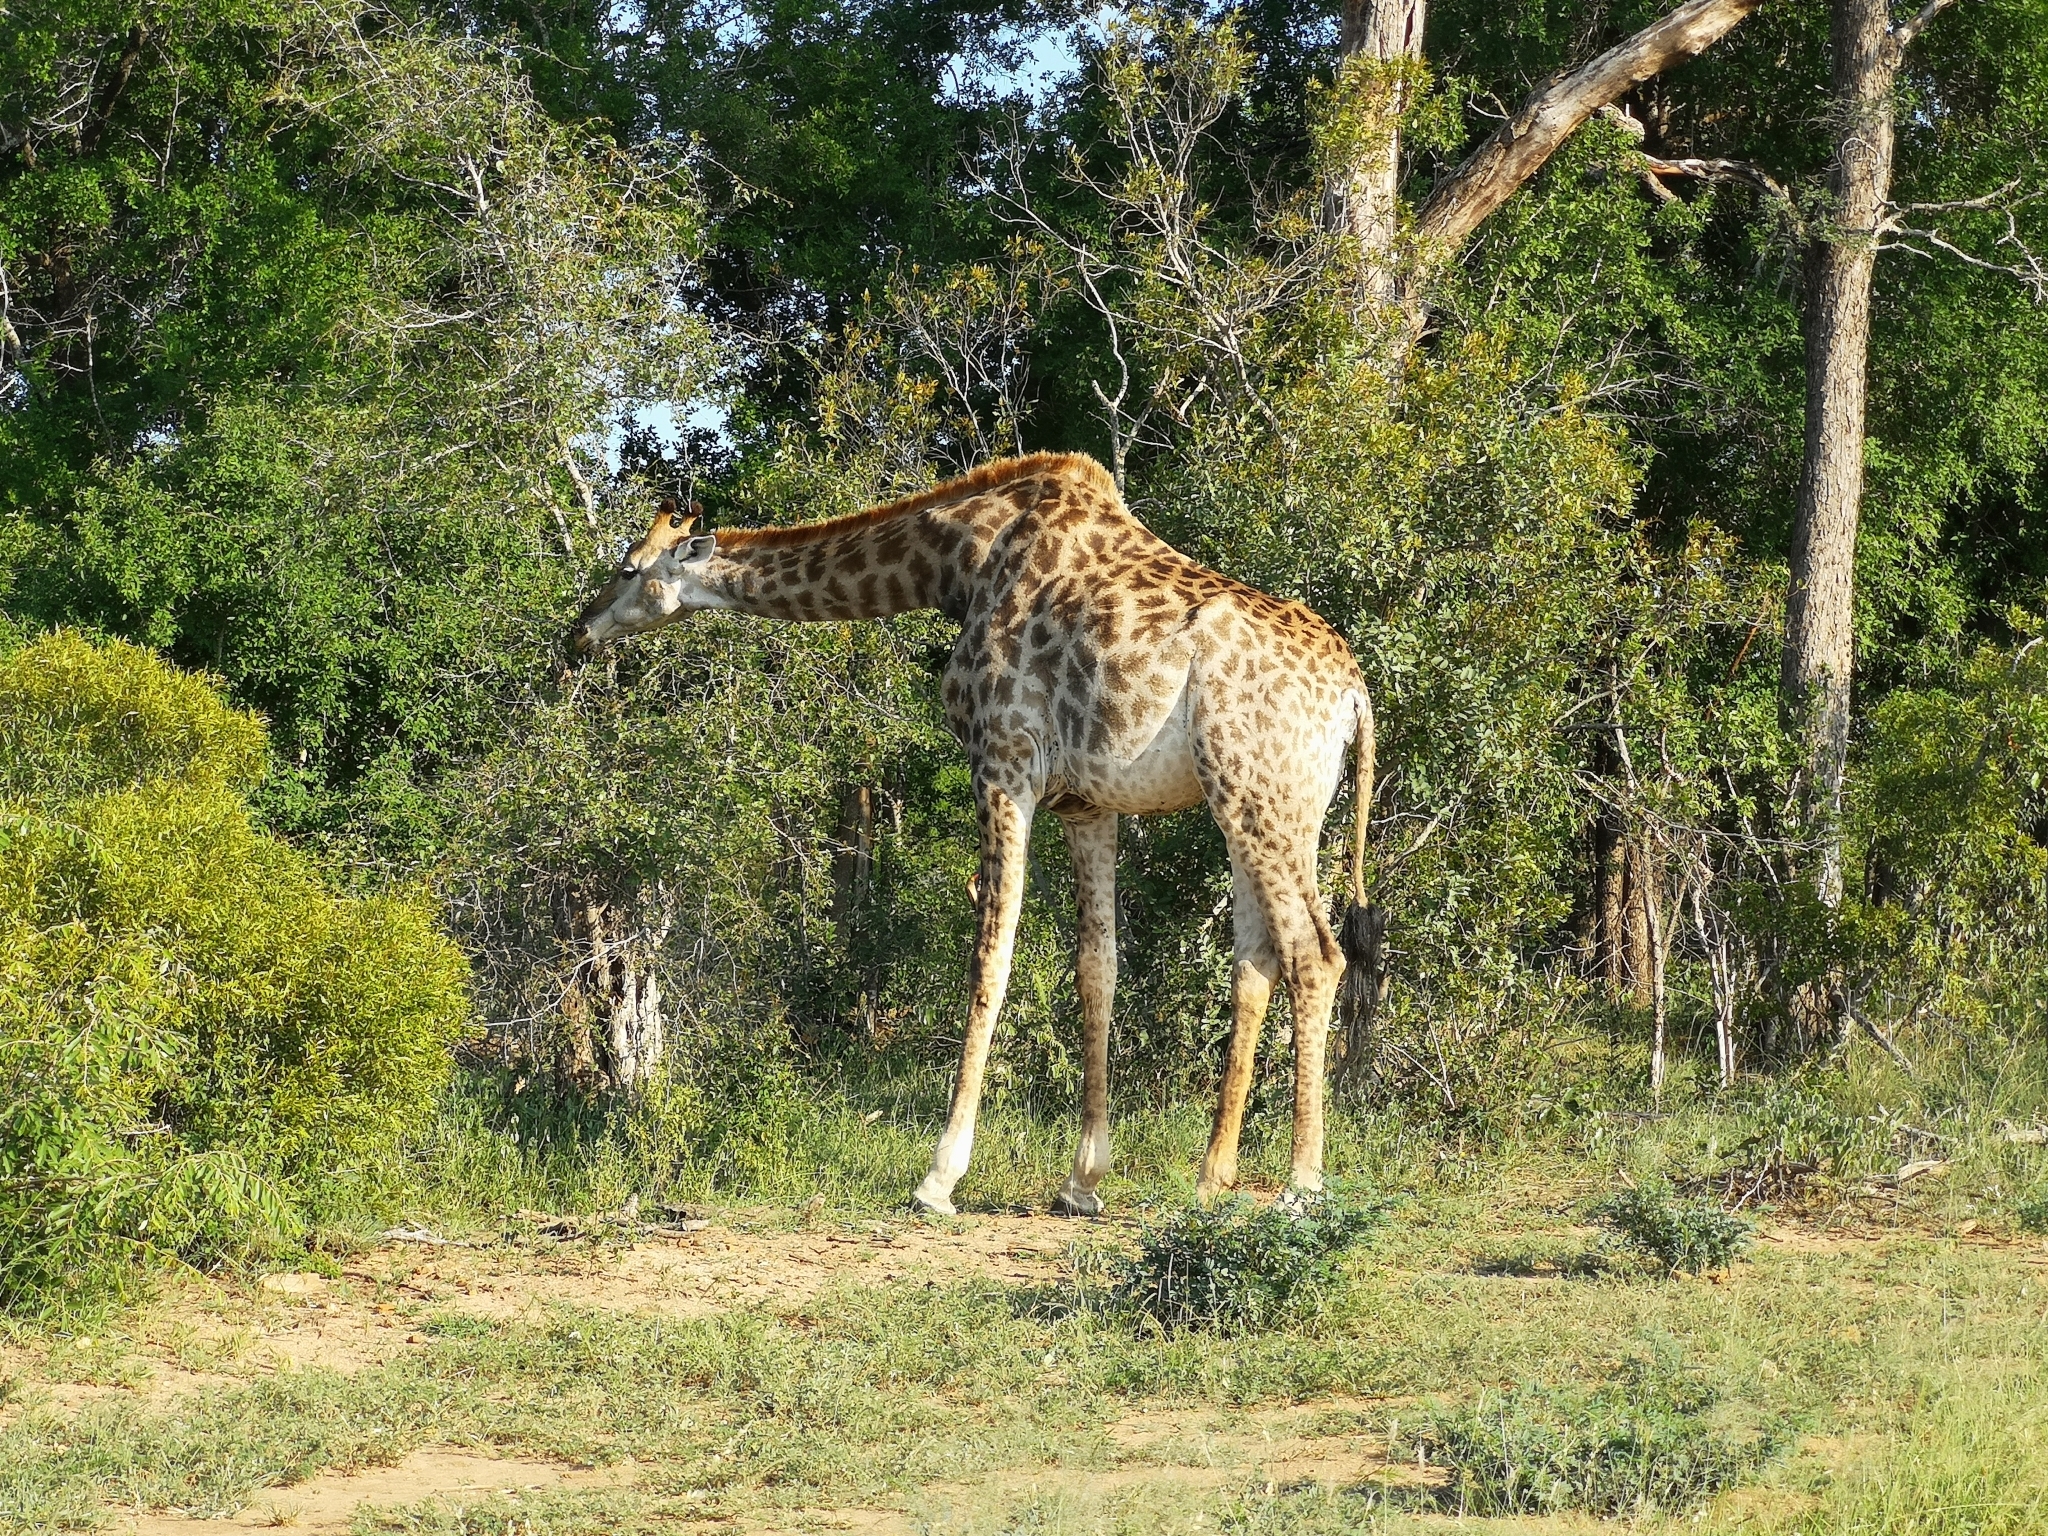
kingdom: Animalia
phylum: Chordata
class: Mammalia
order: Artiodactyla
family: Giraffidae
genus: Giraffa
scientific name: Giraffa giraffa
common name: Southern giraffe
